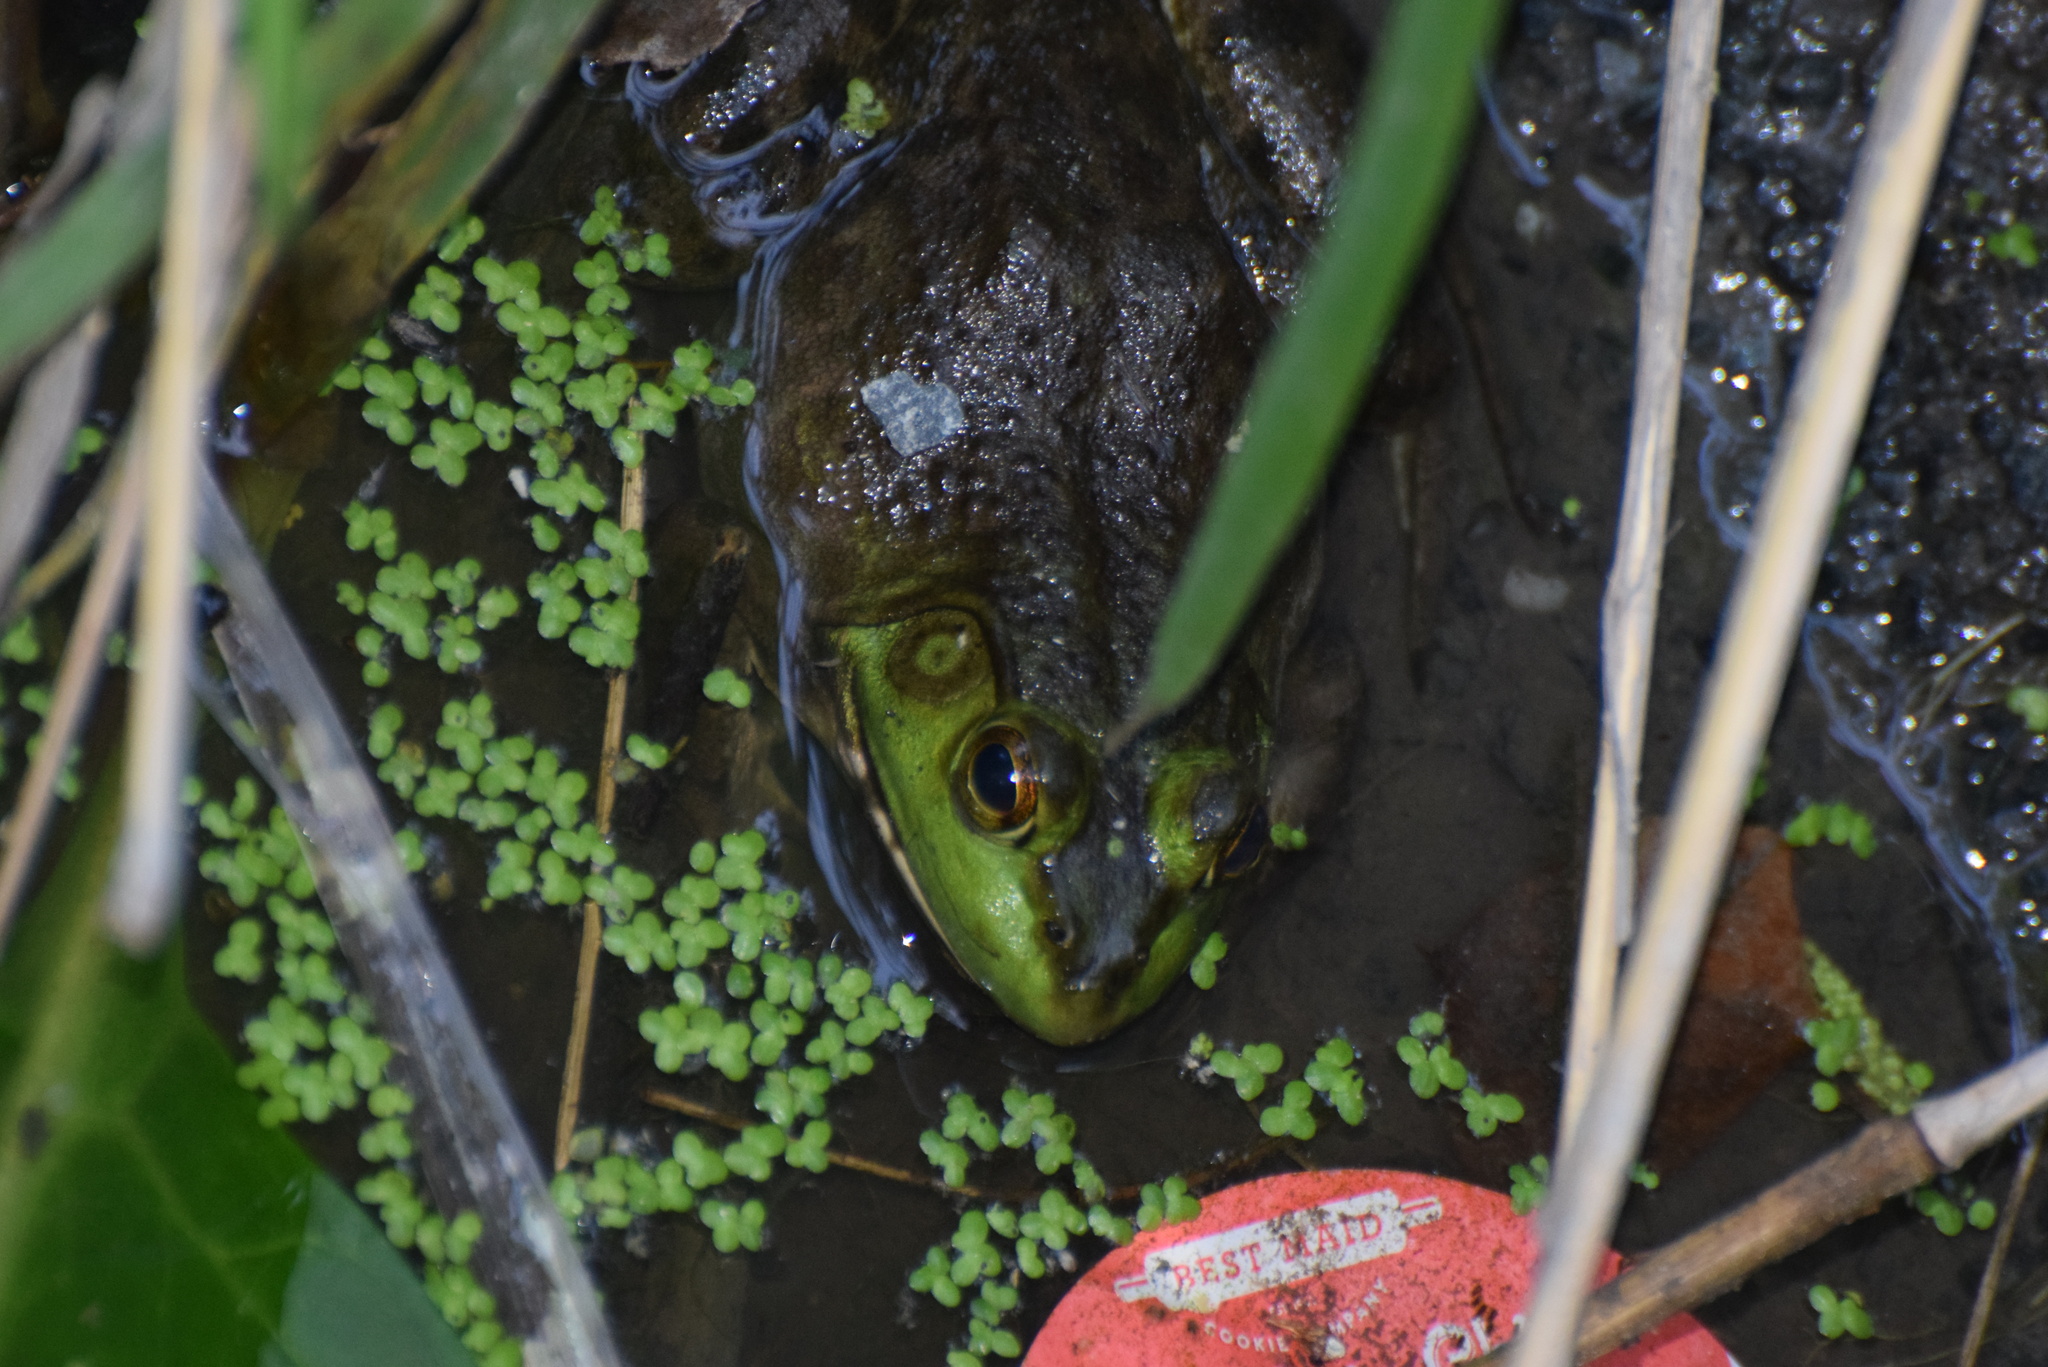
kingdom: Animalia
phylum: Chordata
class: Amphibia
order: Anura
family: Ranidae
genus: Lithobates
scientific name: Lithobates catesbeianus
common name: American bullfrog
